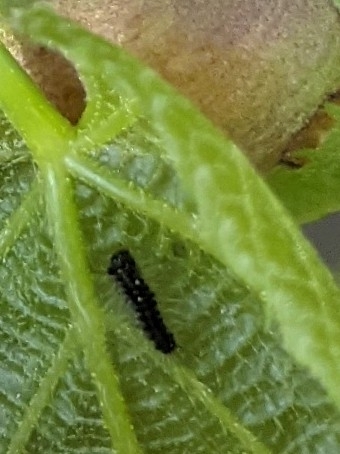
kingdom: Animalia
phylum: Arthropoda
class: Insecta
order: Lepidoptera
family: Erebidae
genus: Lymantria
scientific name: Lymantria dispar
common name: Gypsy moth
